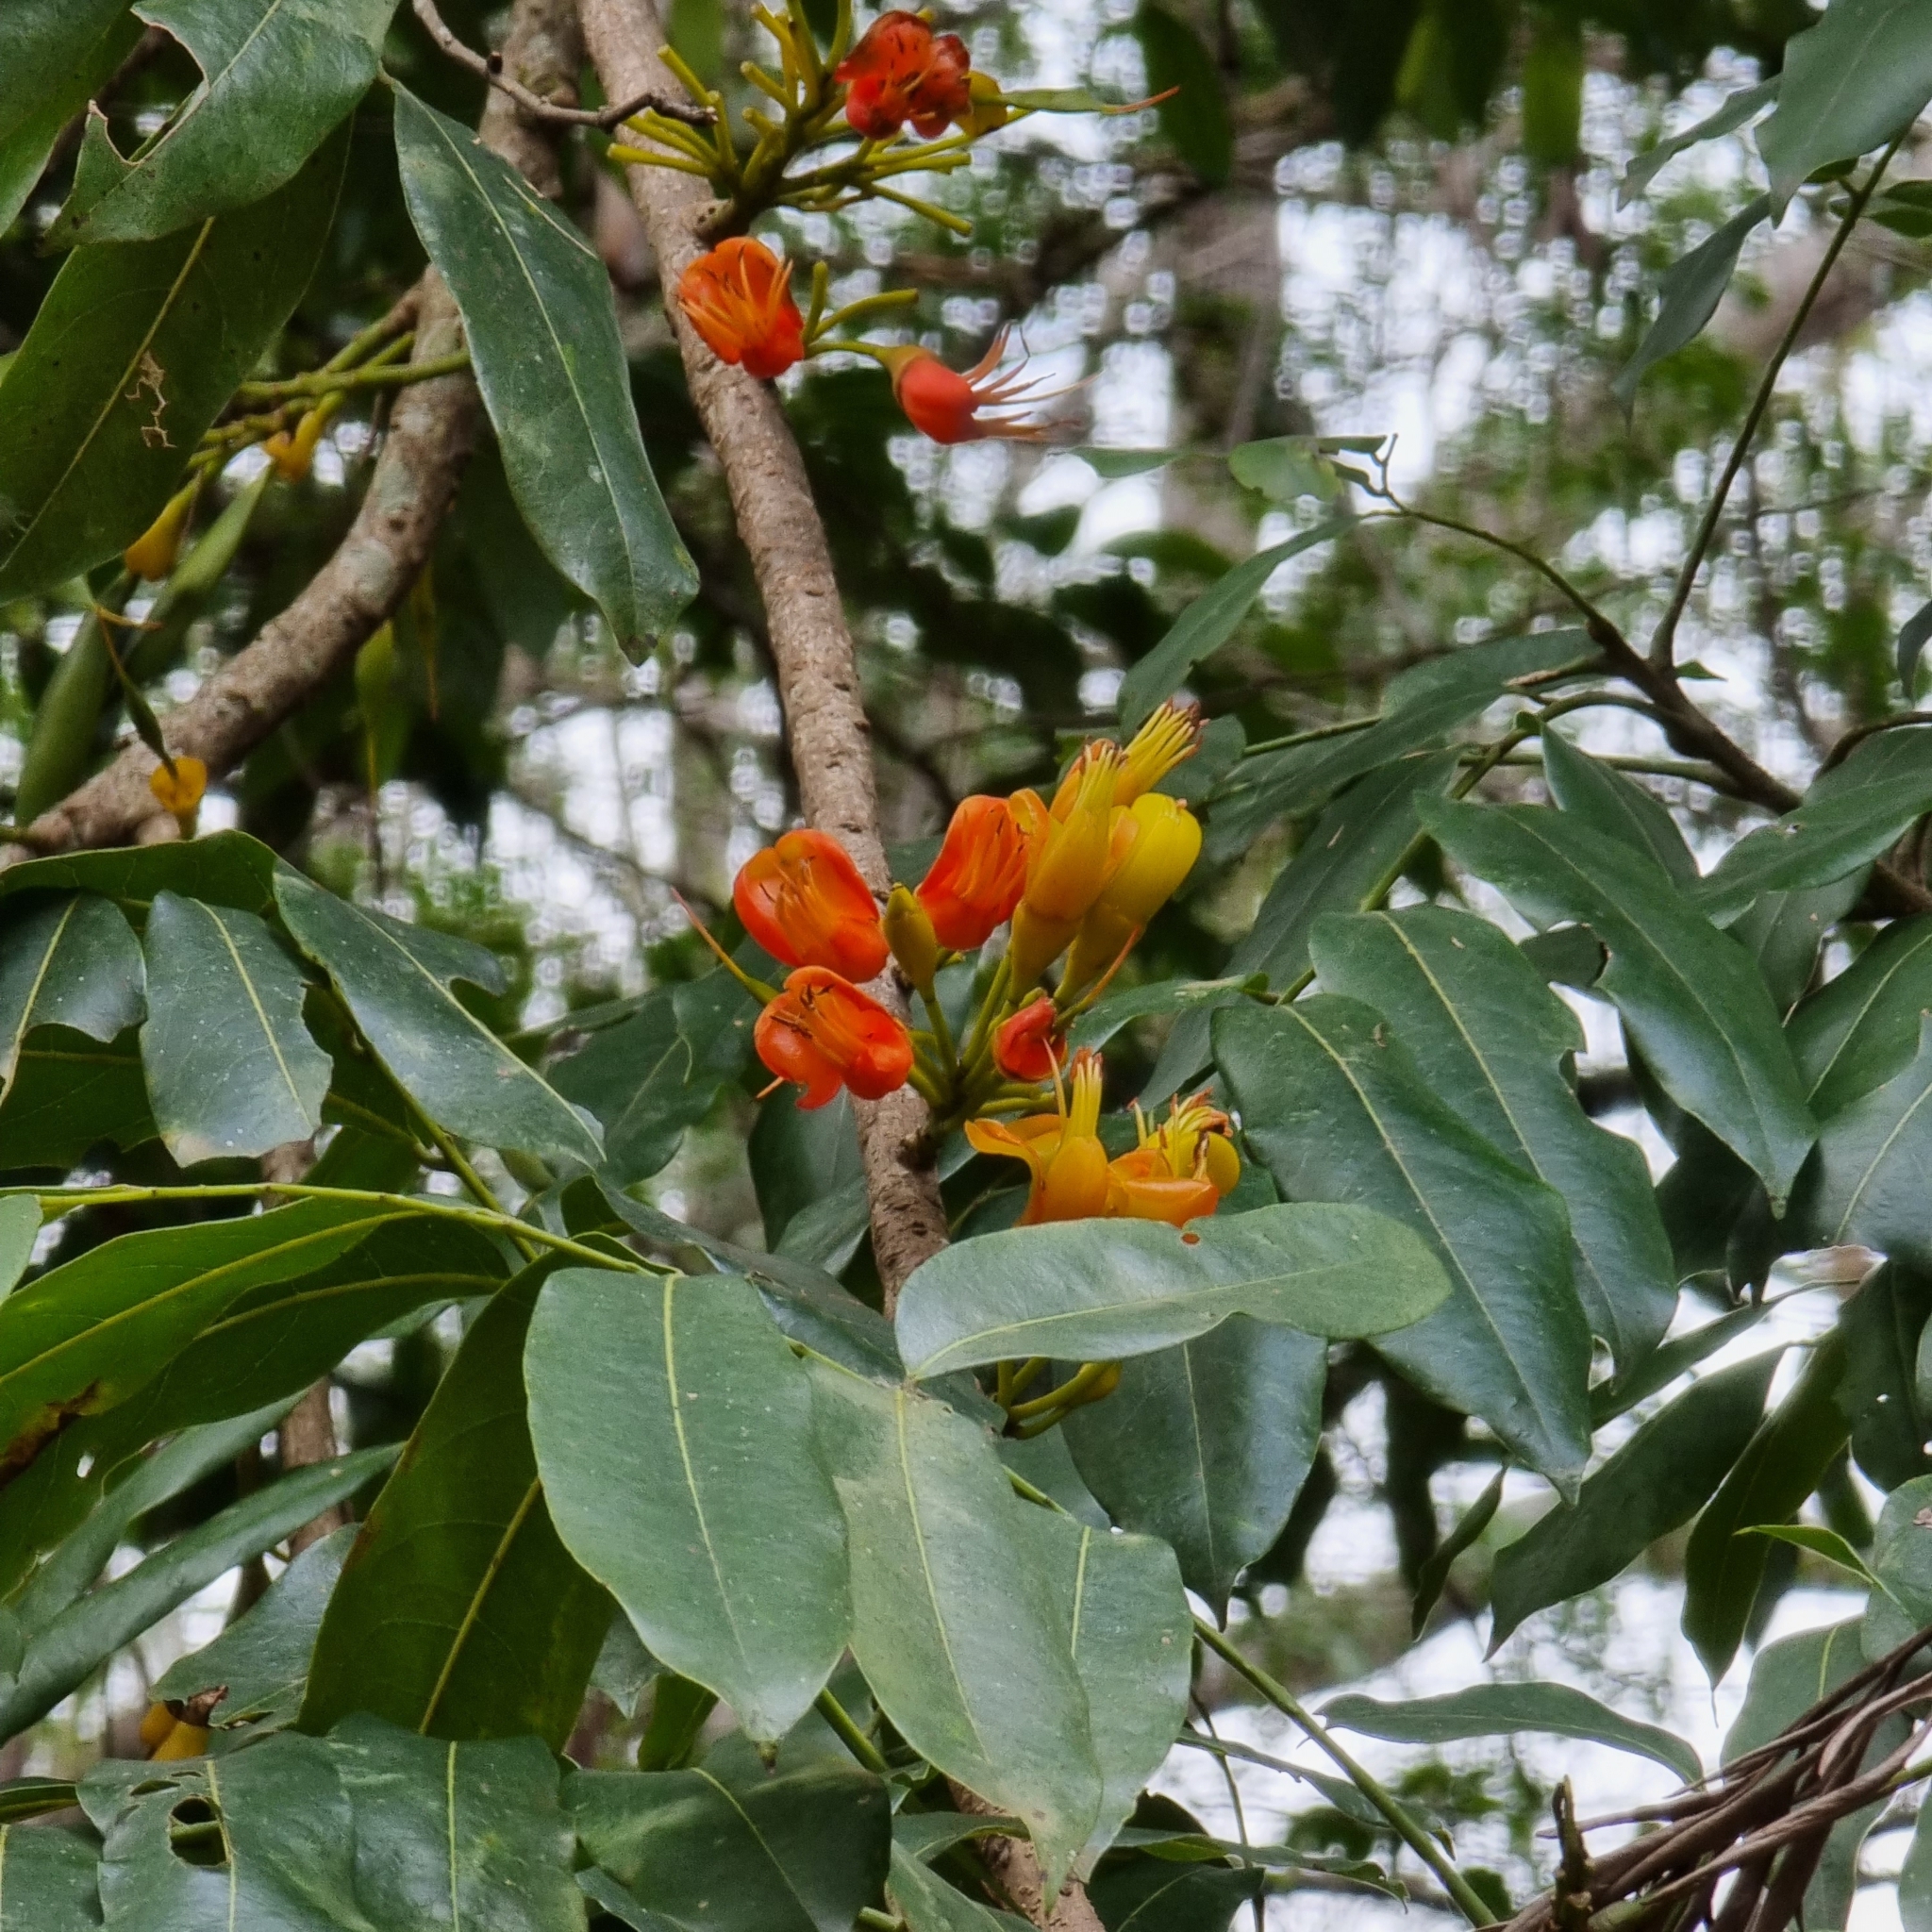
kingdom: Plantae
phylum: Tracheophyta
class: Magnoliopsida
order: Fabales
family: Fabaceae
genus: Castanospermum
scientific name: Castanospermum australe
